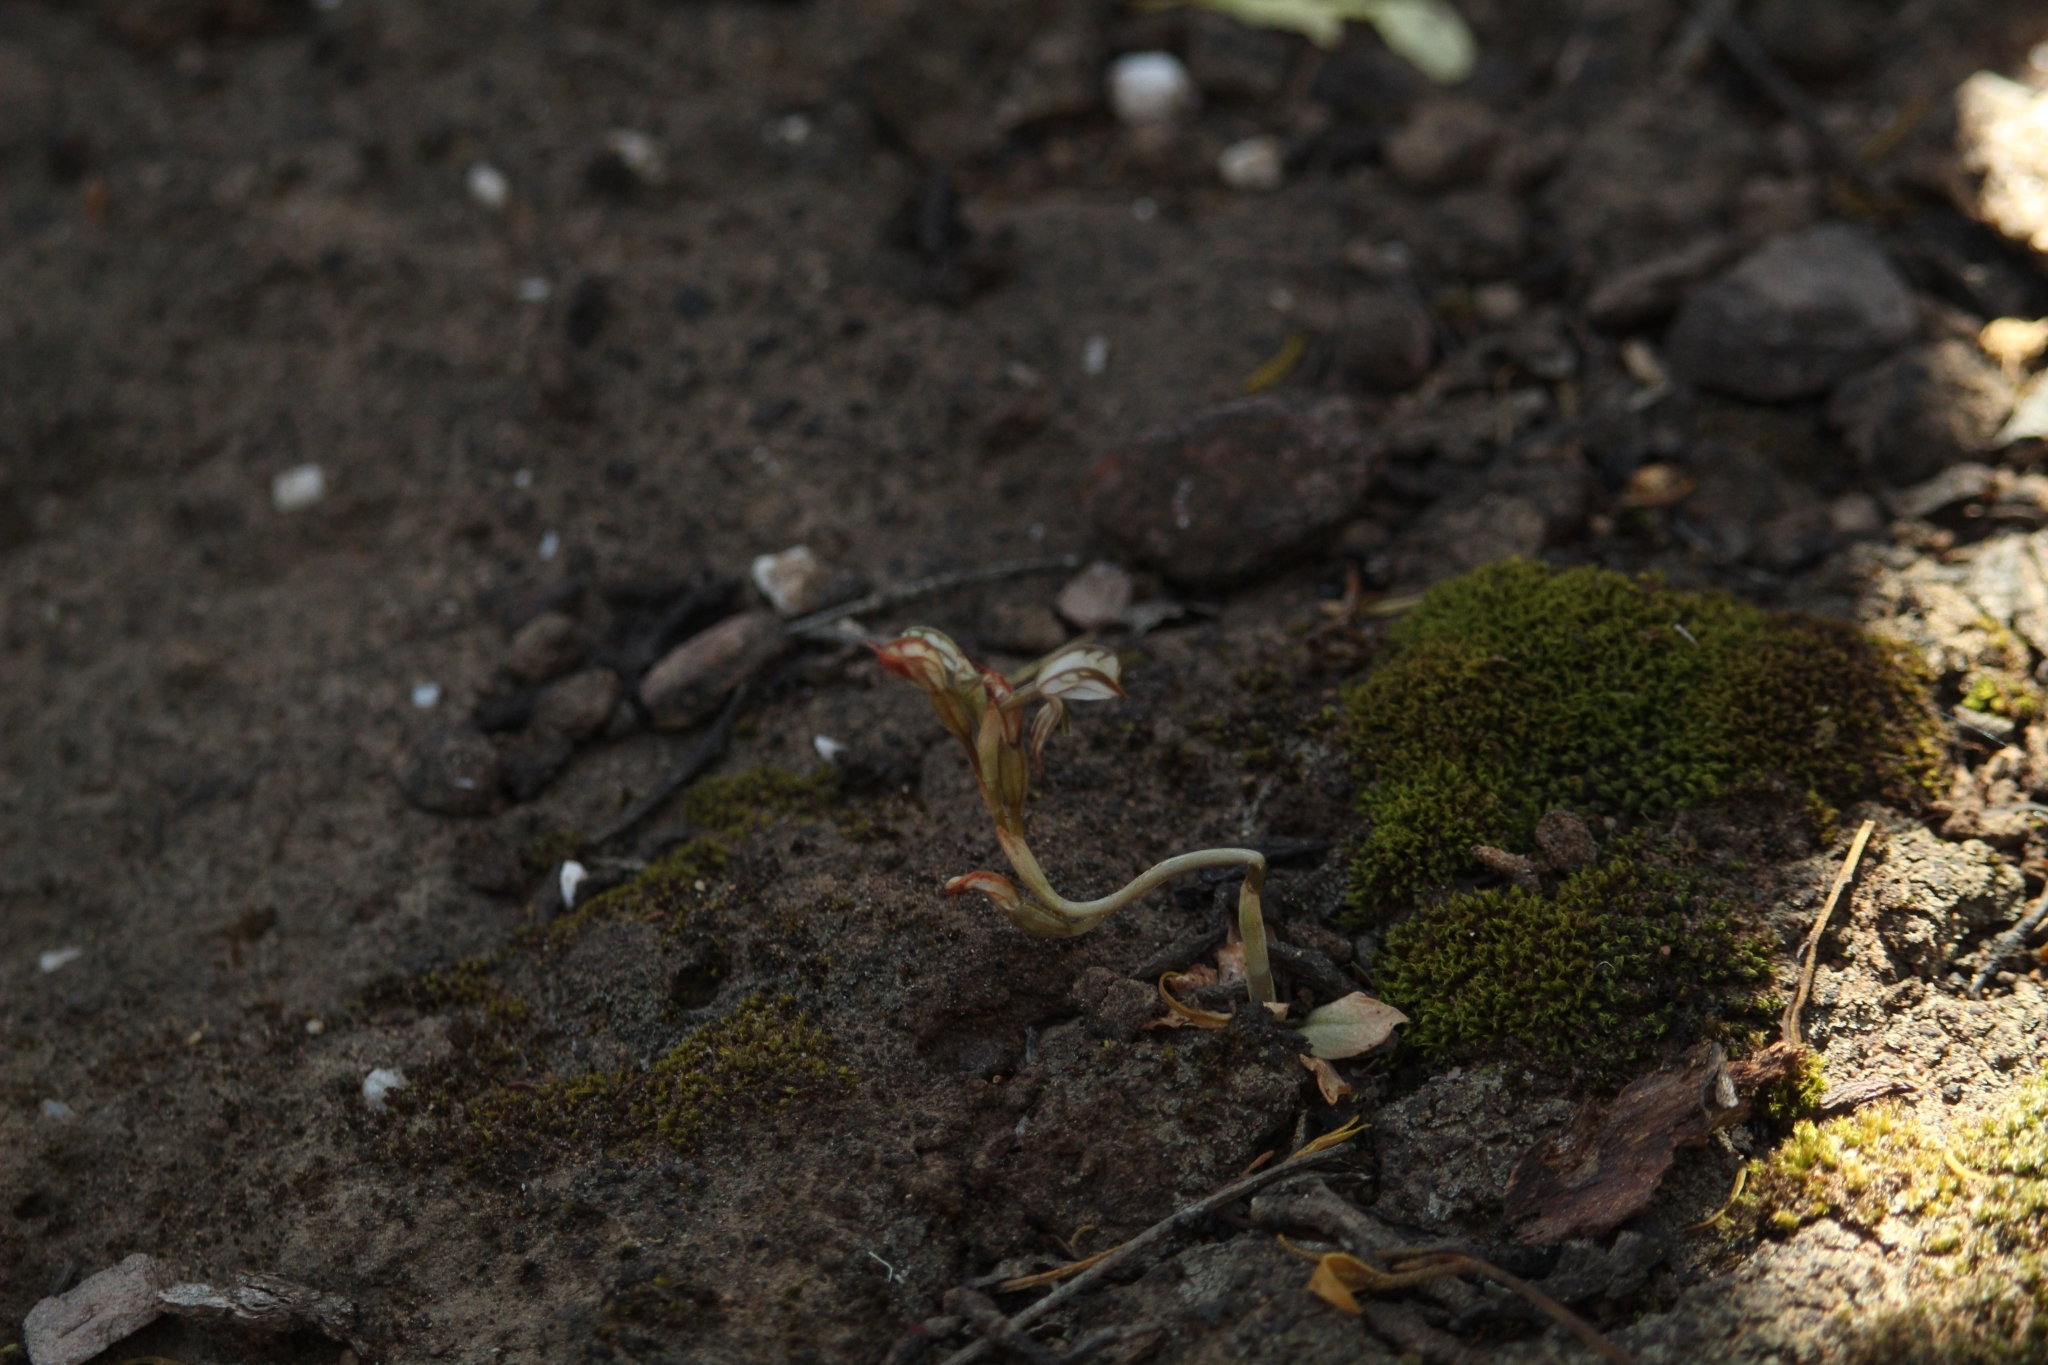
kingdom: Plantae
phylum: Tracheophyta
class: Liliopsida
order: Asparagales
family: Orchidaceae
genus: Pterostylis
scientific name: Pterostylis perculta
